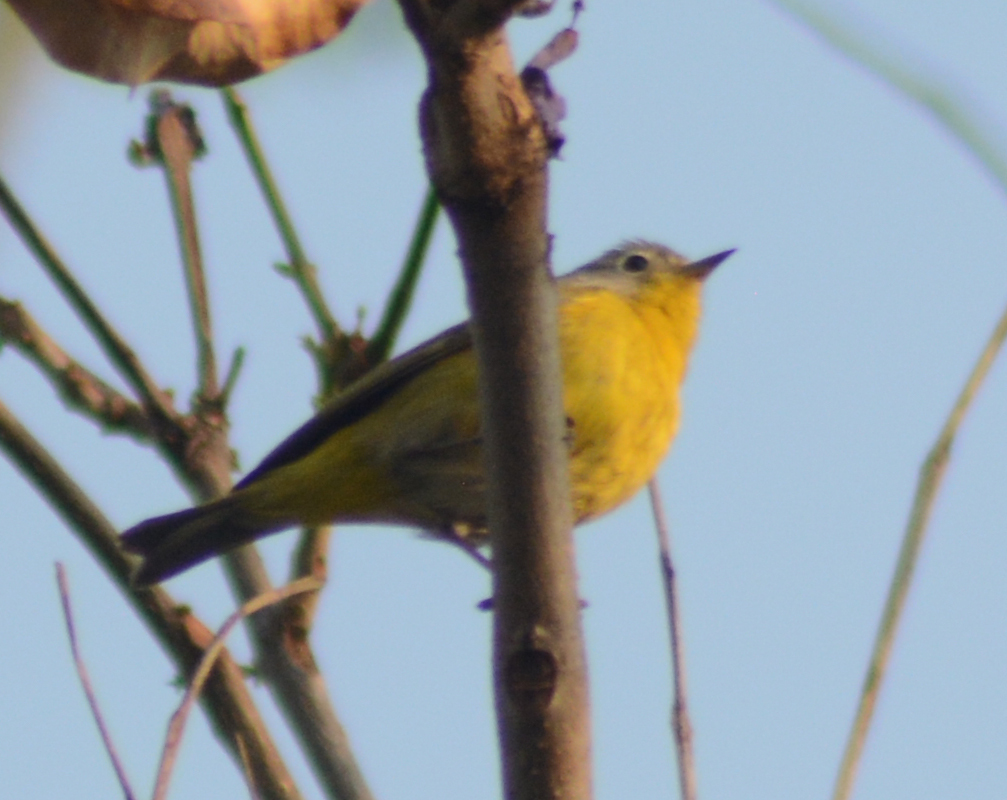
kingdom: Animalia
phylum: Chordata
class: Aves
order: Passeriformes
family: Parulidae
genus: Leiothlypis
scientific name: Leiothlypis ruficapilla
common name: Nashville warbler
